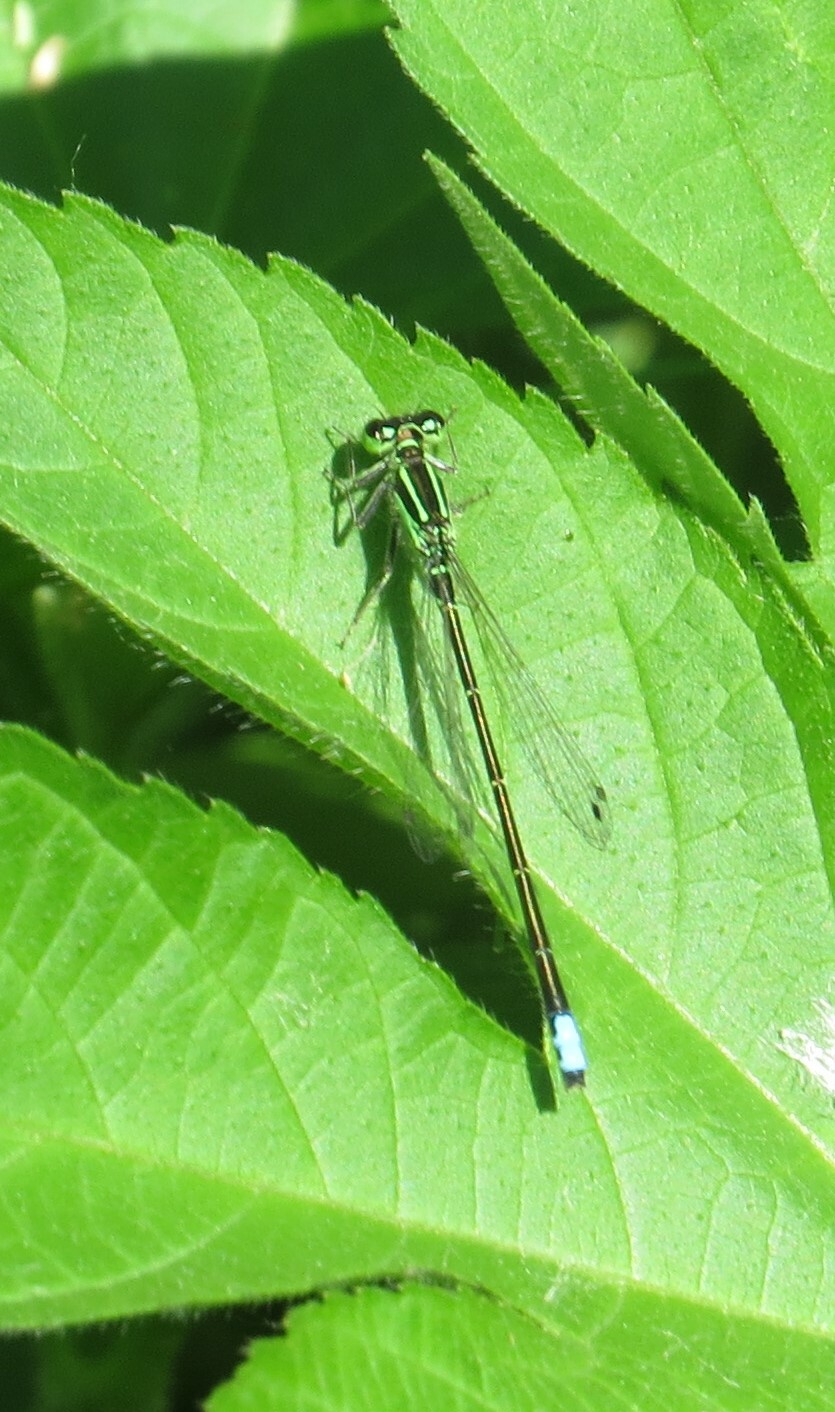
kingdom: Animalia
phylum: Arthropoda
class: Insecta
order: Odonata
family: Coenagrionidae
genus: Ischnura
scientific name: Ischnura verticalis
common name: Eastern forktail
